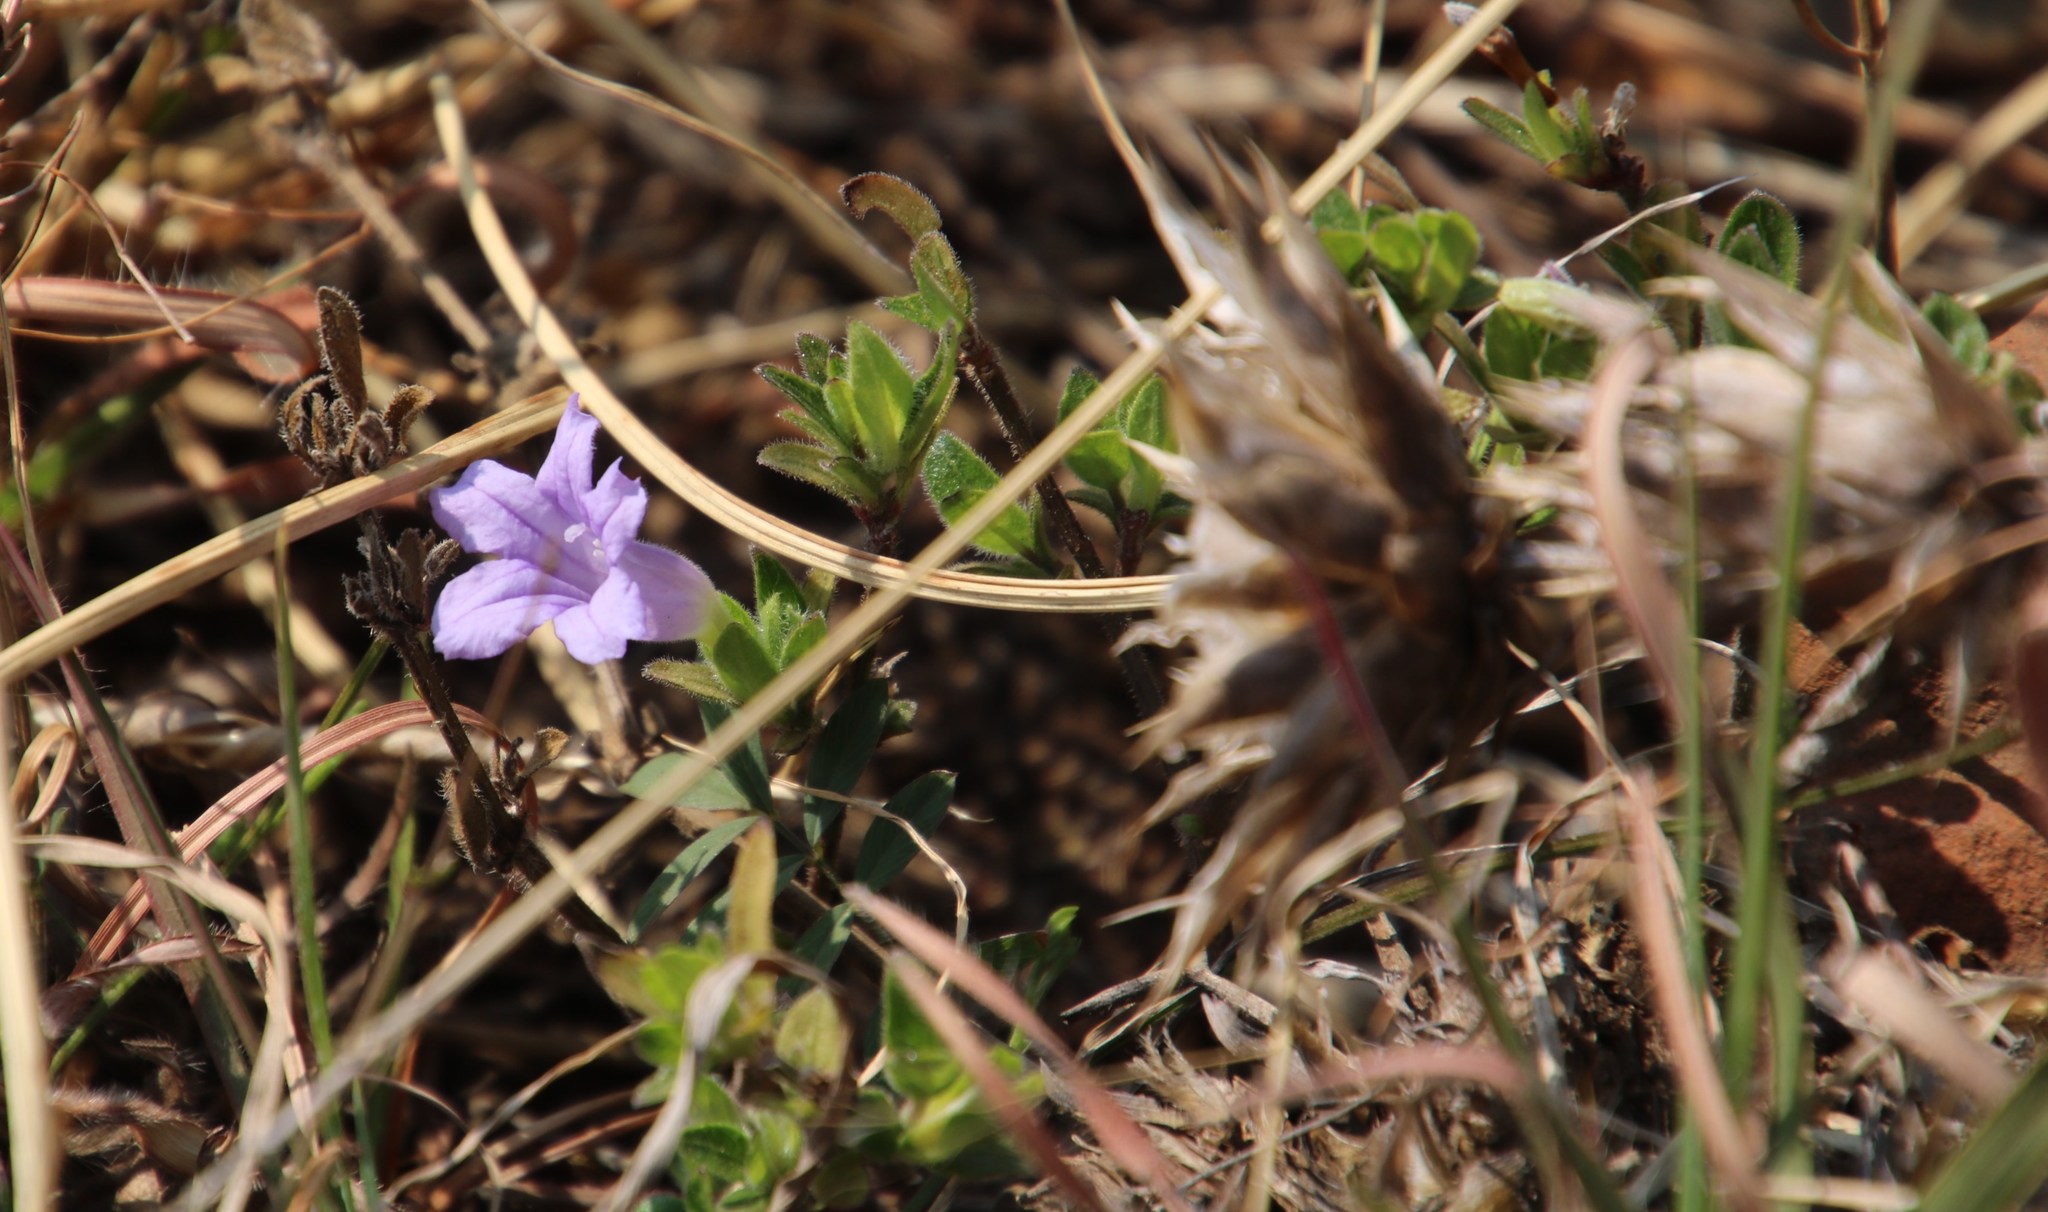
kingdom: Plantae
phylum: Tracheophyta
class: Magnoliopsida
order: Lamiales
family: Acanthaceae
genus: Ruellia
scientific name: Ruellia cordata
